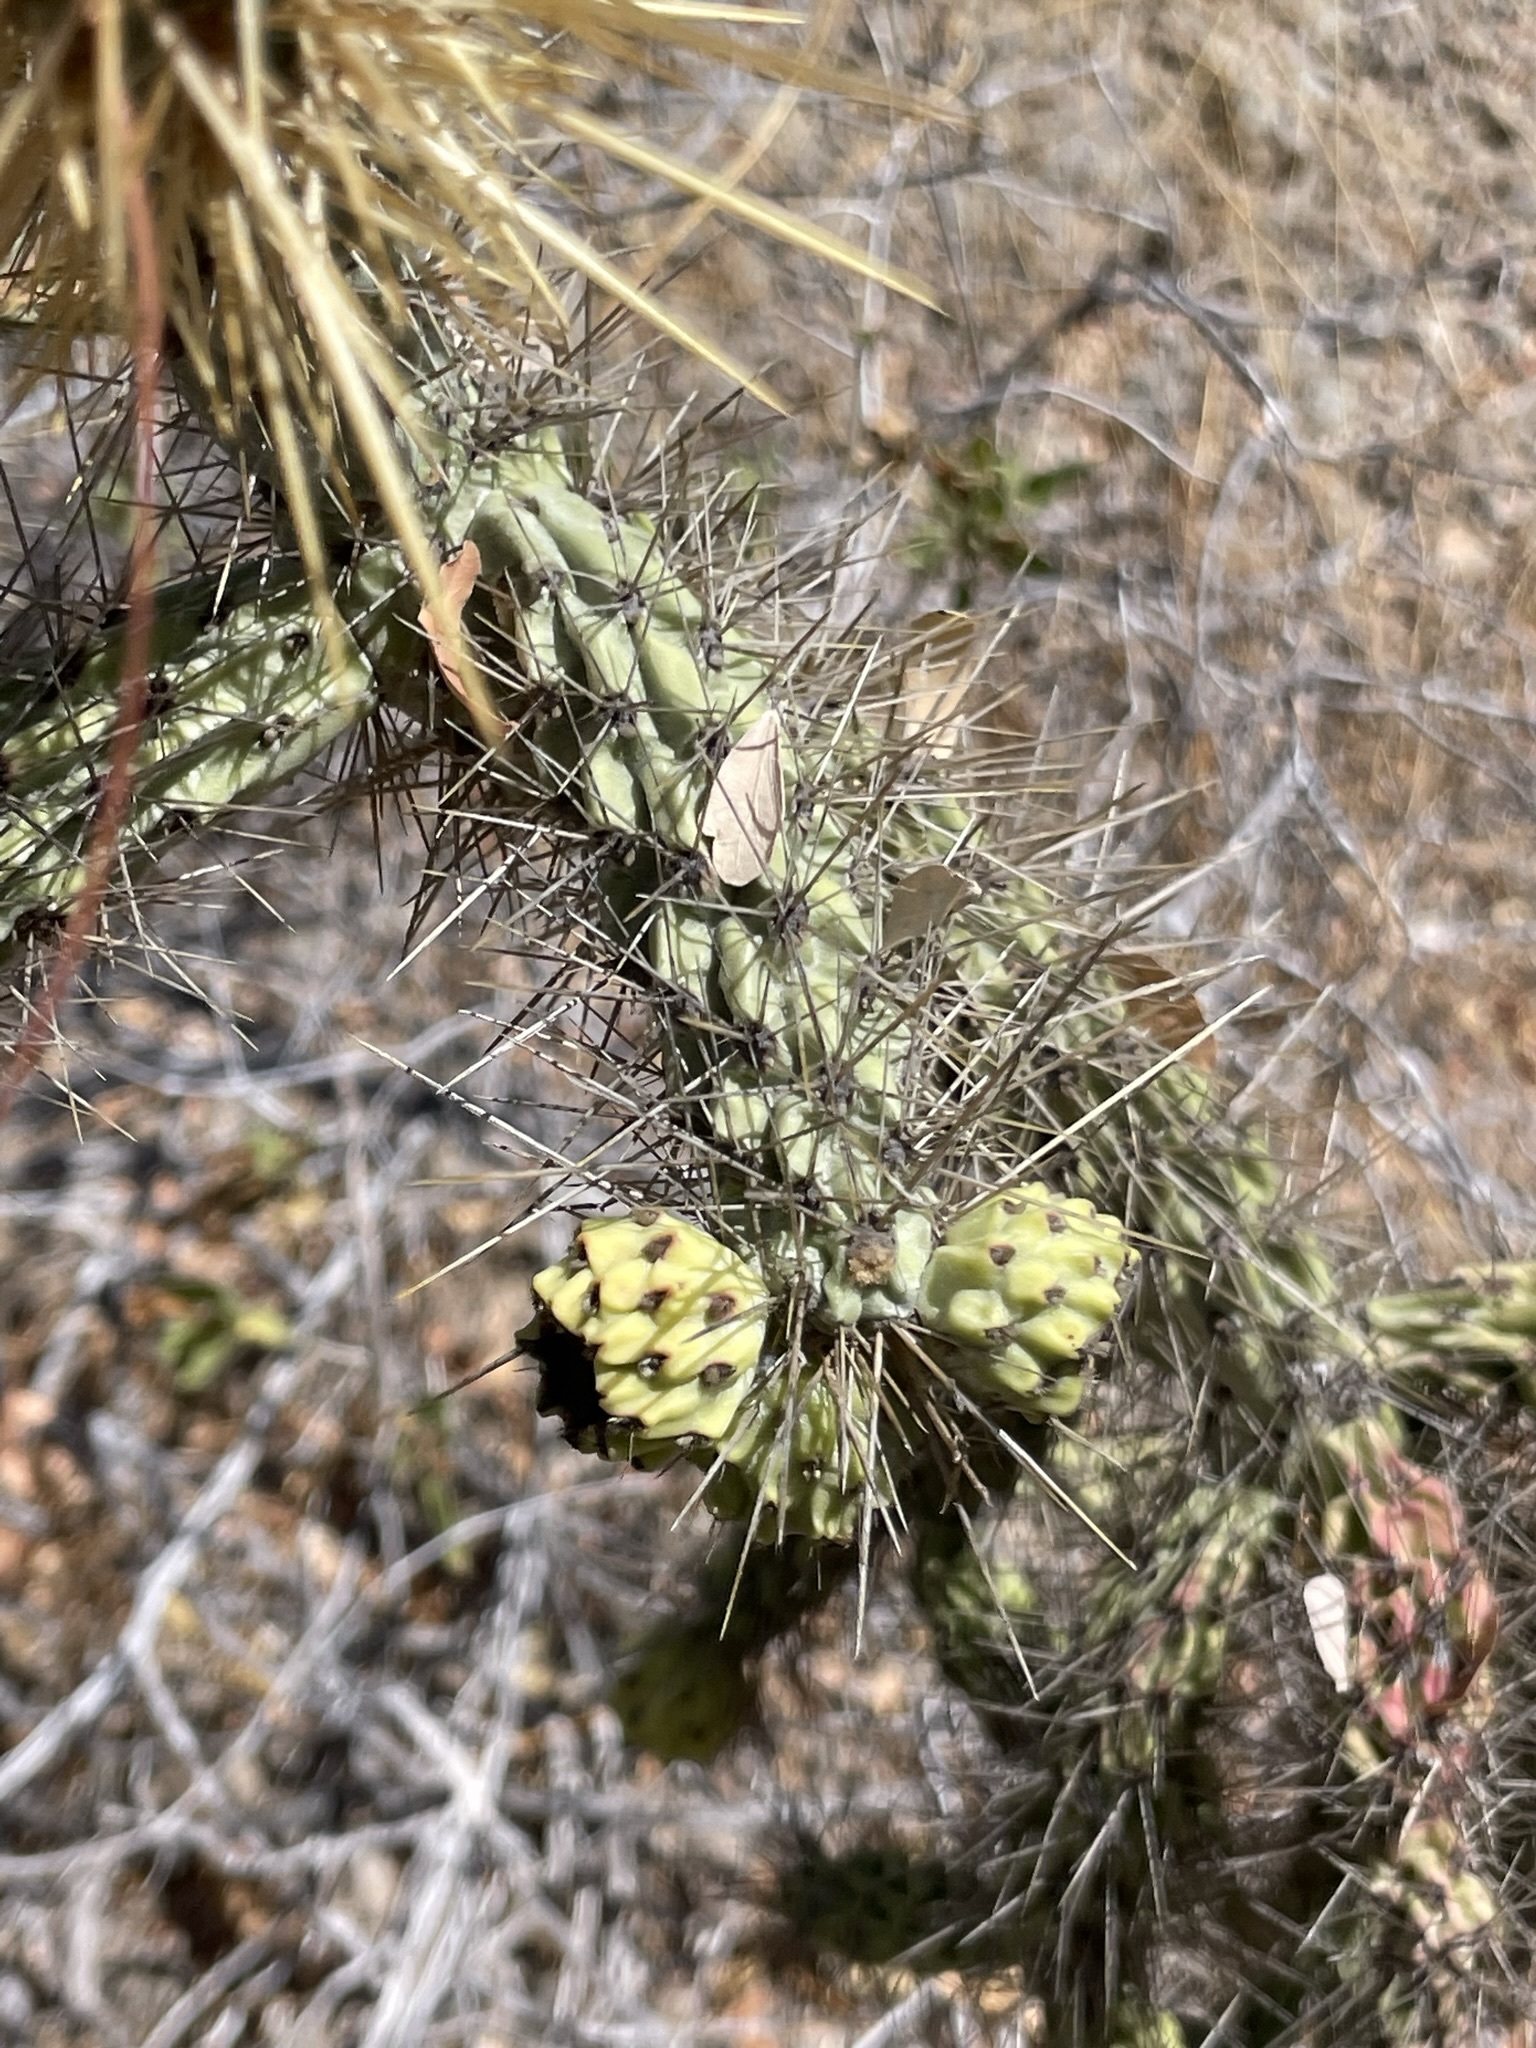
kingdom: Plantae
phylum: Tracheophyta
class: Magnoliopsida
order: Caryophyllales
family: Cactaceae
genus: Cylindropuntia
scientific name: Cylindropuntia alcahes
